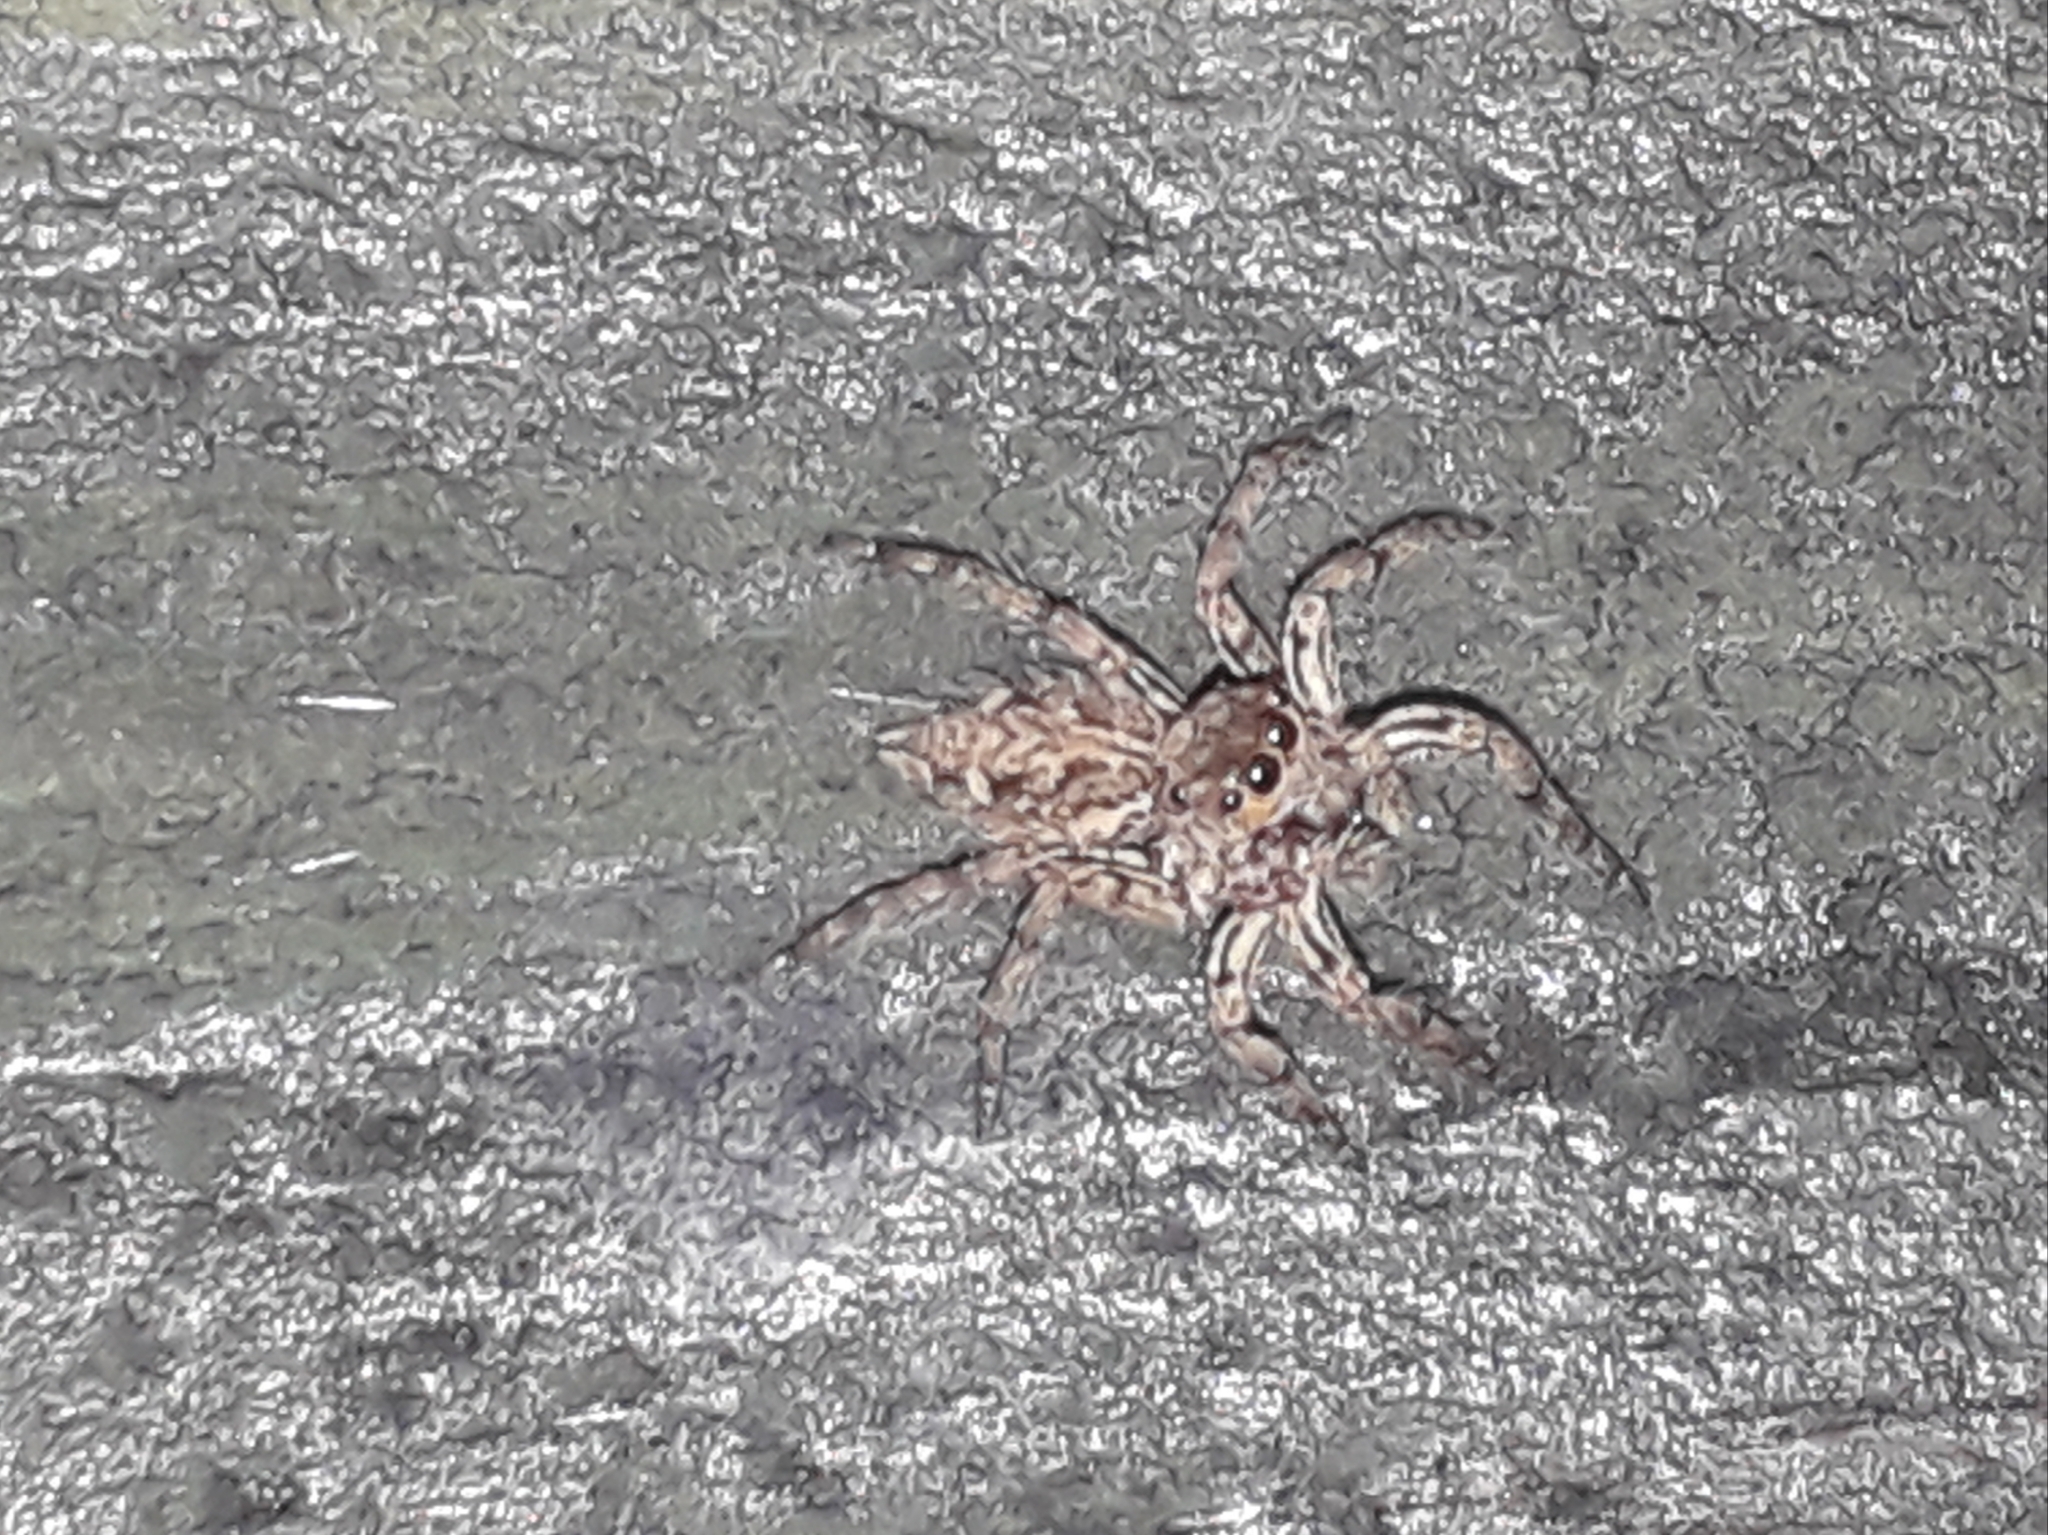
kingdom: Animalia
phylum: Arthropoda
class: Arachnida
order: Araneae
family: Salticidae
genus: Plexippus
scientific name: Plexippus petersi
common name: Jumping spider
